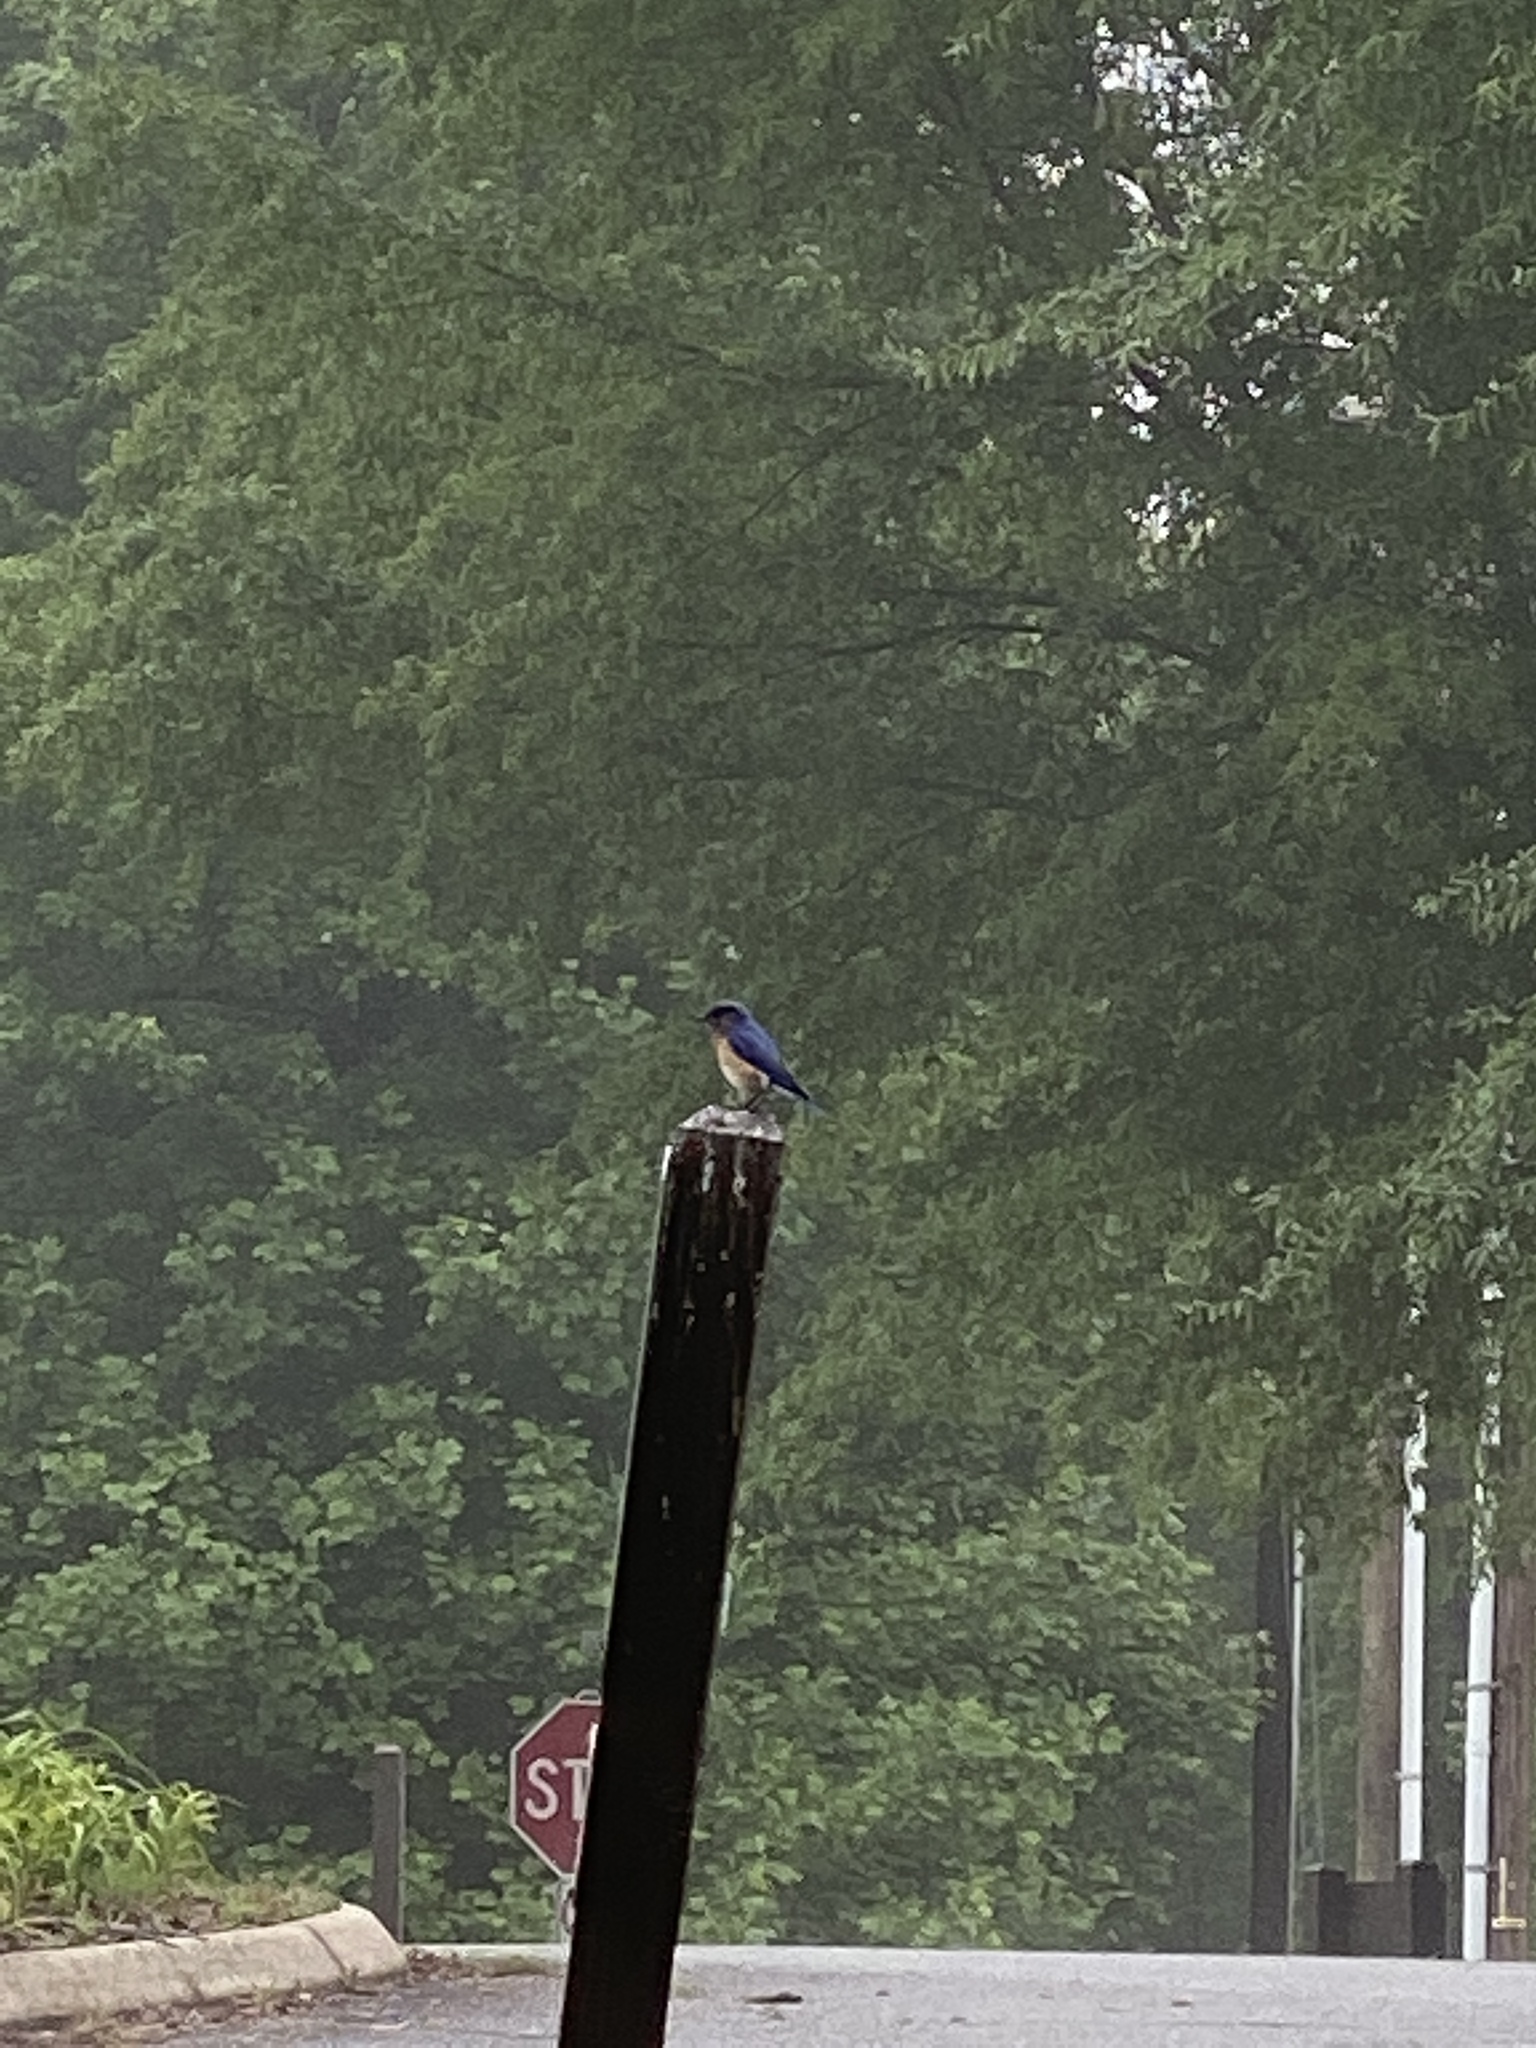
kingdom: Animalia
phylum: Chordata
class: Aves
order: Passeriformes
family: Turdidae
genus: Sialia
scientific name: Sialia sialis
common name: Eastern bluebird
